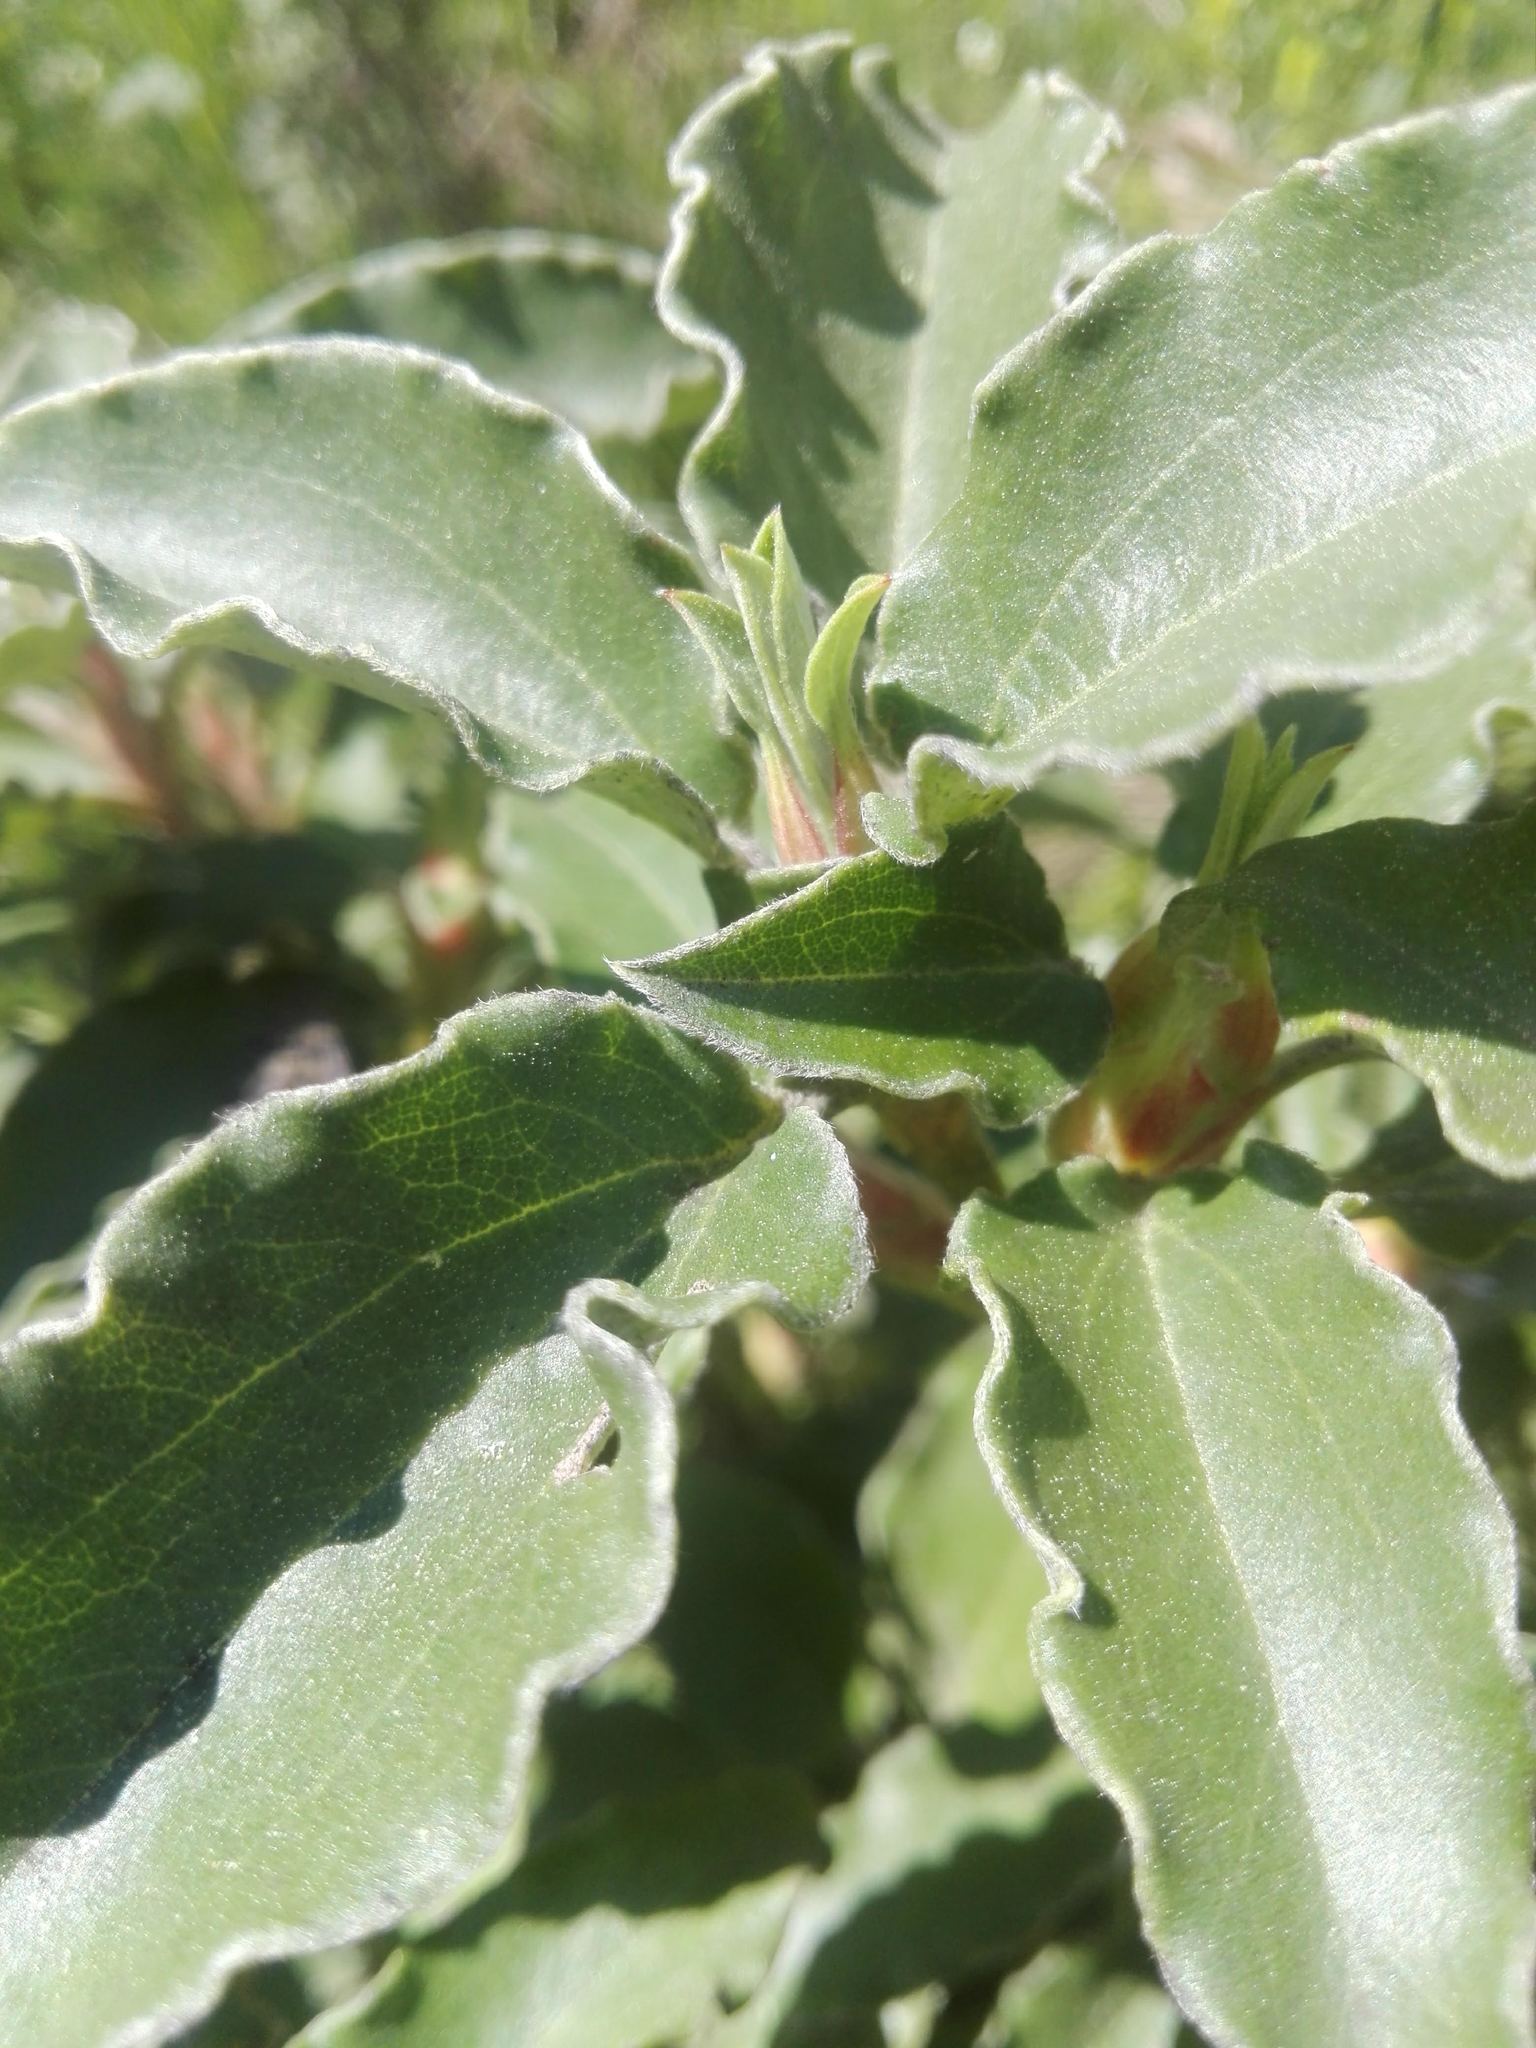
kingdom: Plantae
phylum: Tracheophyta
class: Magnoliopsida
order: Malvales
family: Cistaceae
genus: Cistus
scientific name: Cistus laurifolius
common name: Laurel-leaved cistus
